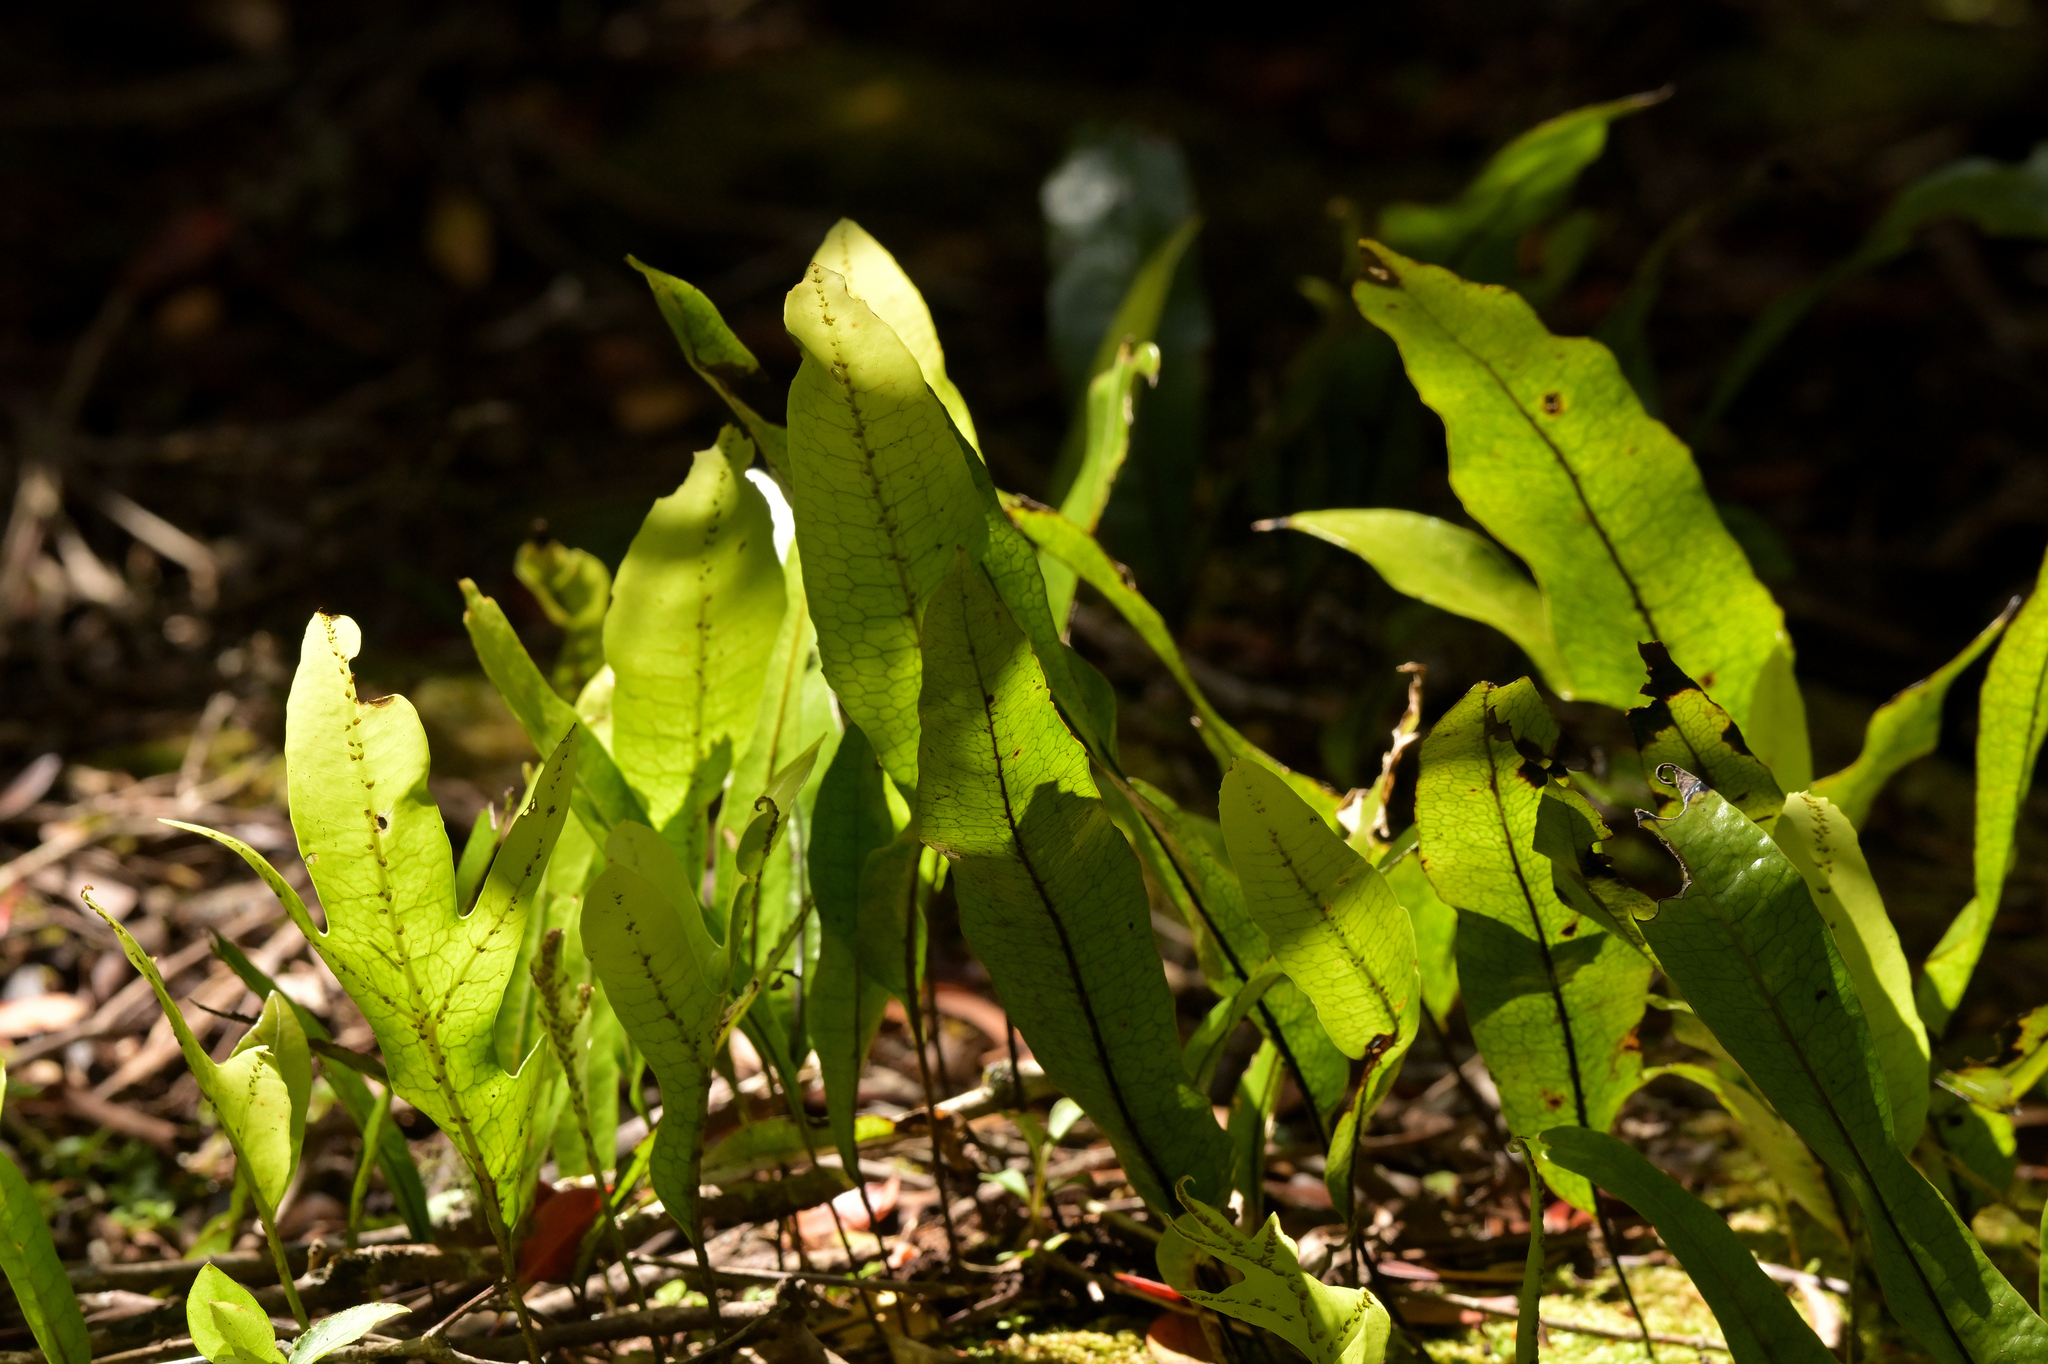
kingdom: Plantae
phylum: Tracheophyta
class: Polypodiopsida
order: Polypodiales
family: Polypodiaceae
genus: Lecanopteris
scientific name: Lecanopteris pustulata
